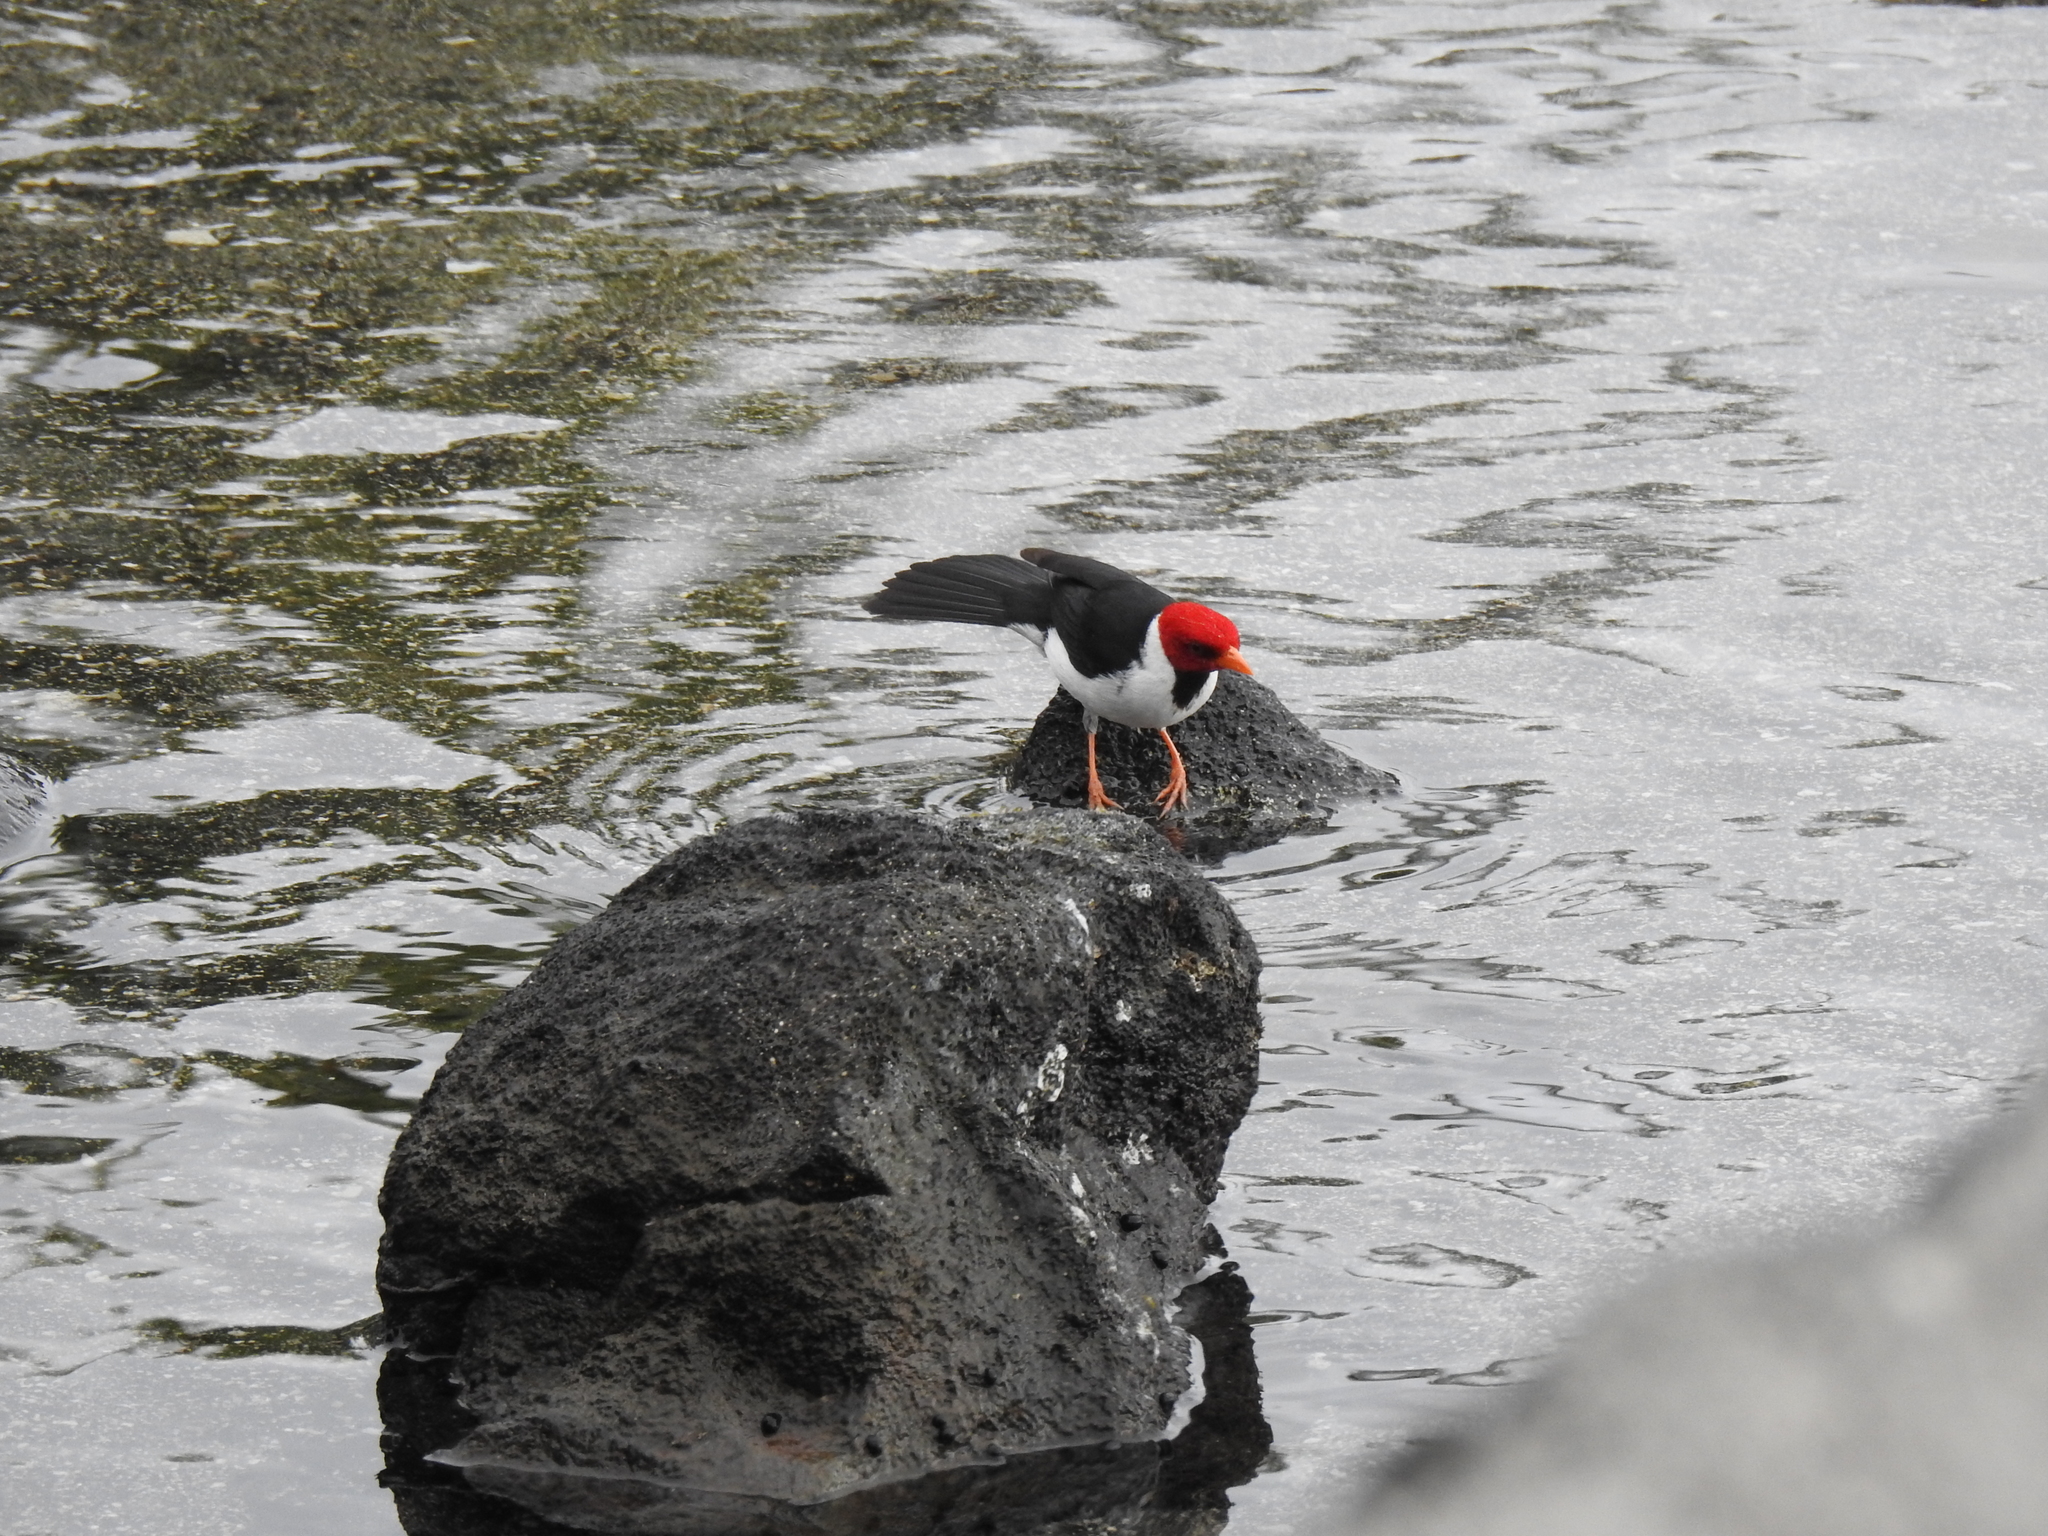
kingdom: Animalia
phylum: Chordata
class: Aves
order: Passeriformes
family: Thraupidae
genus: Paroaria
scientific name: Paroaria capitata
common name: Yellow-billed cardinal
